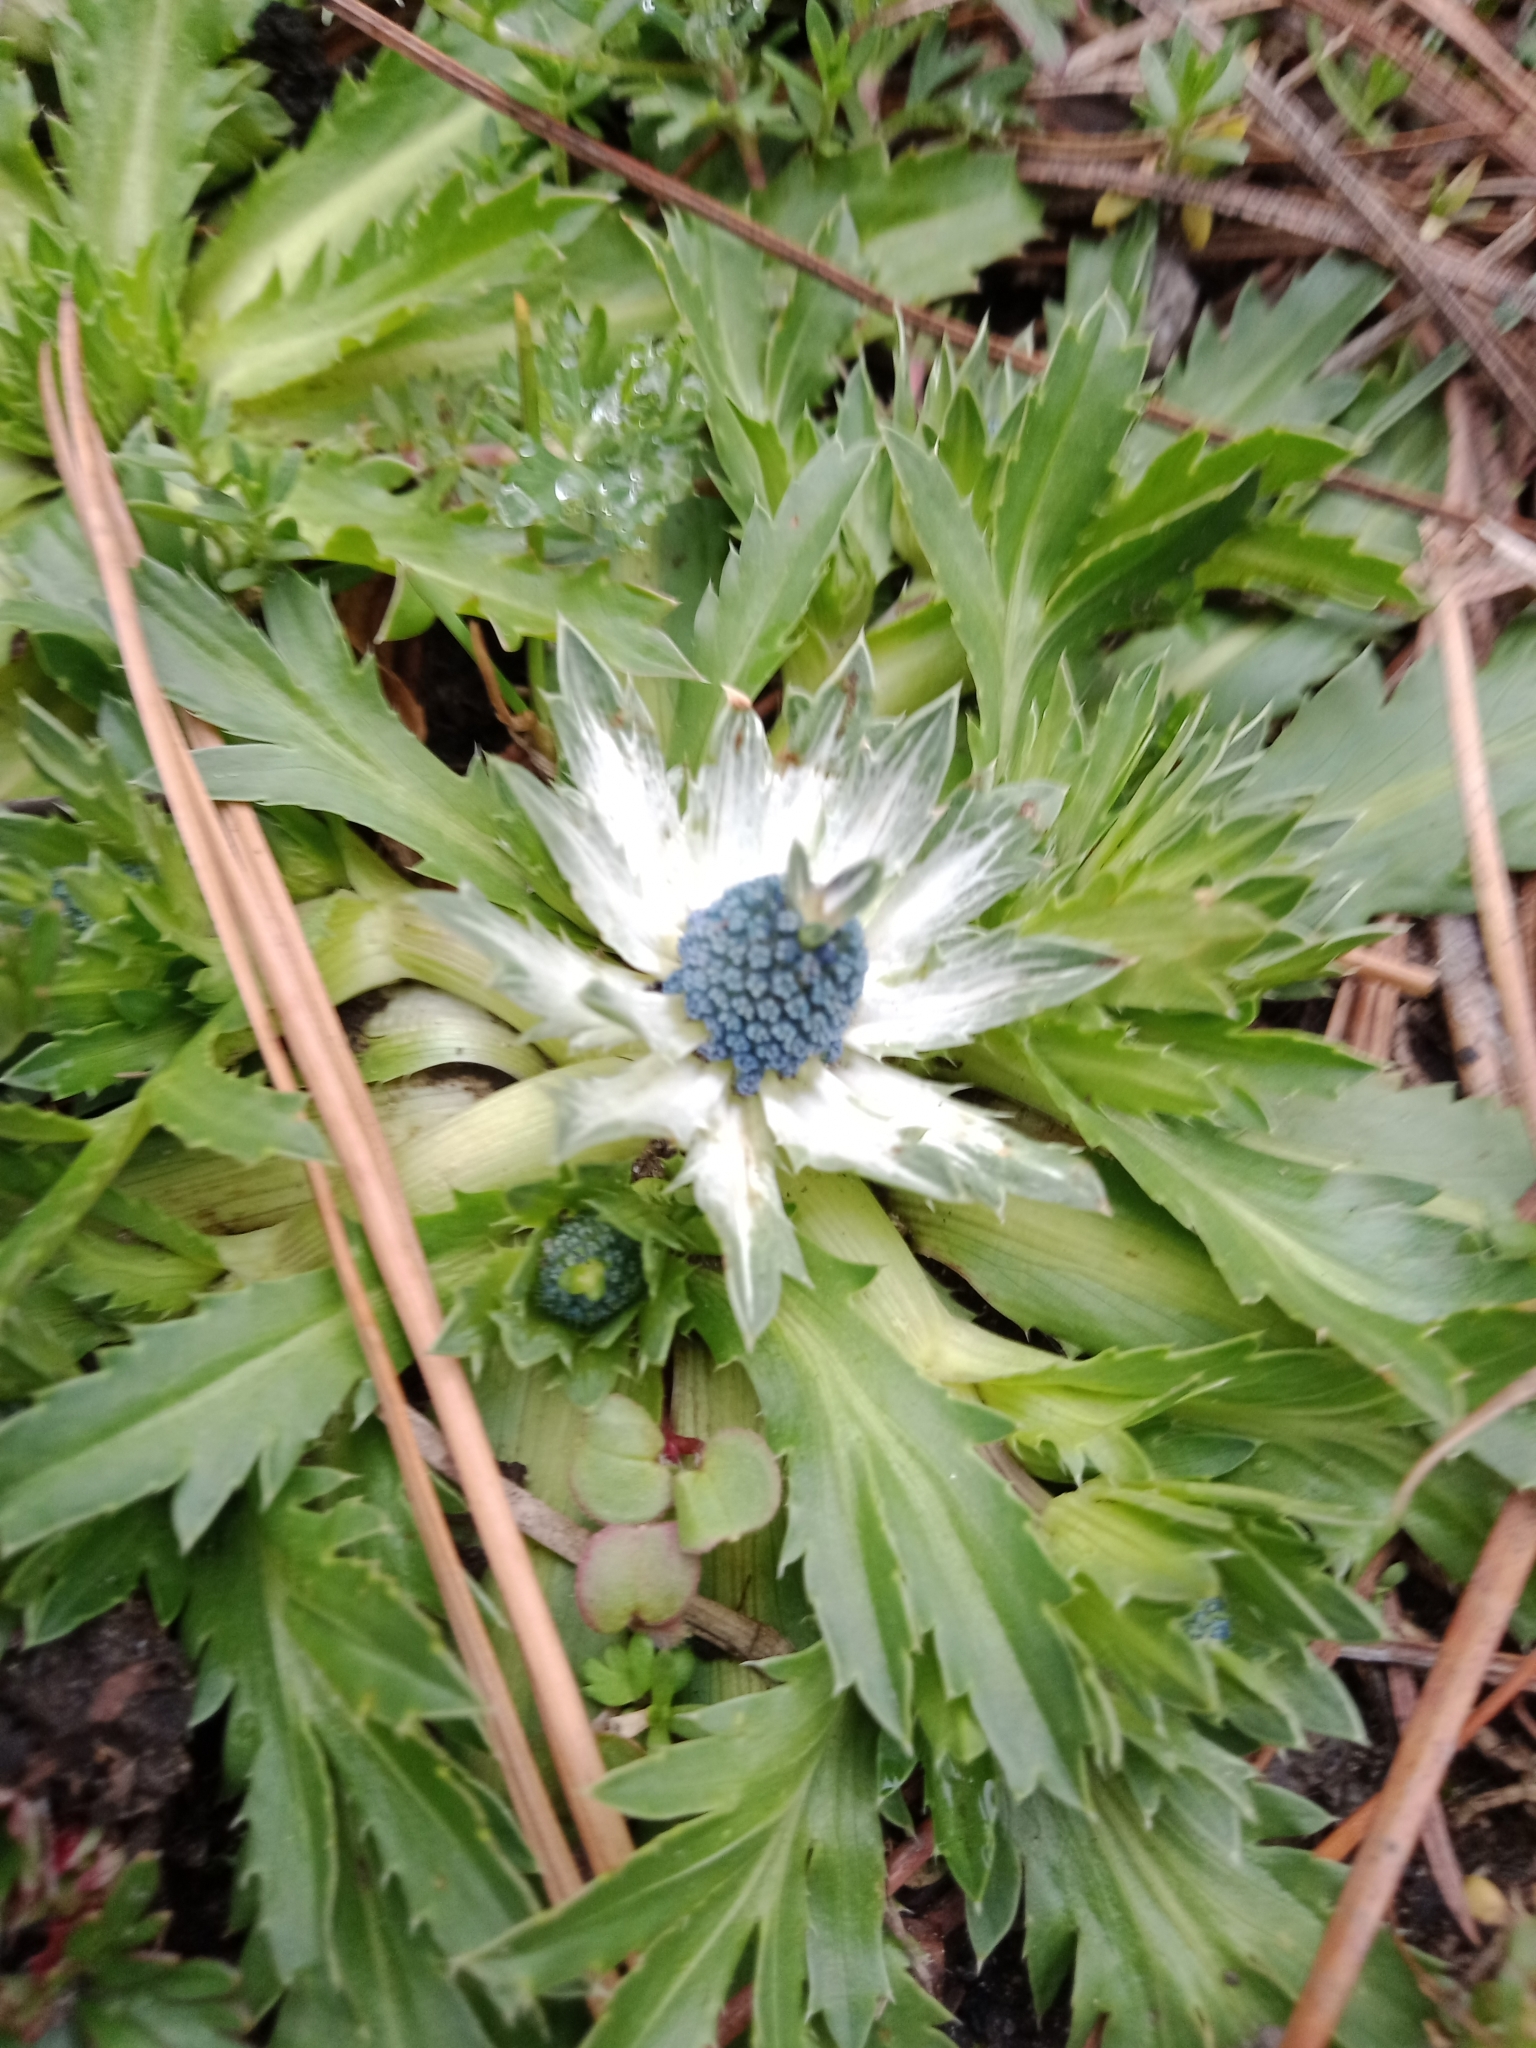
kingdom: Plantae
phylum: Tracheophyta
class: Magnoliopsida
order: Apiales
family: Apiaceae
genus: Eryngium
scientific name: Eryngium carlinae
